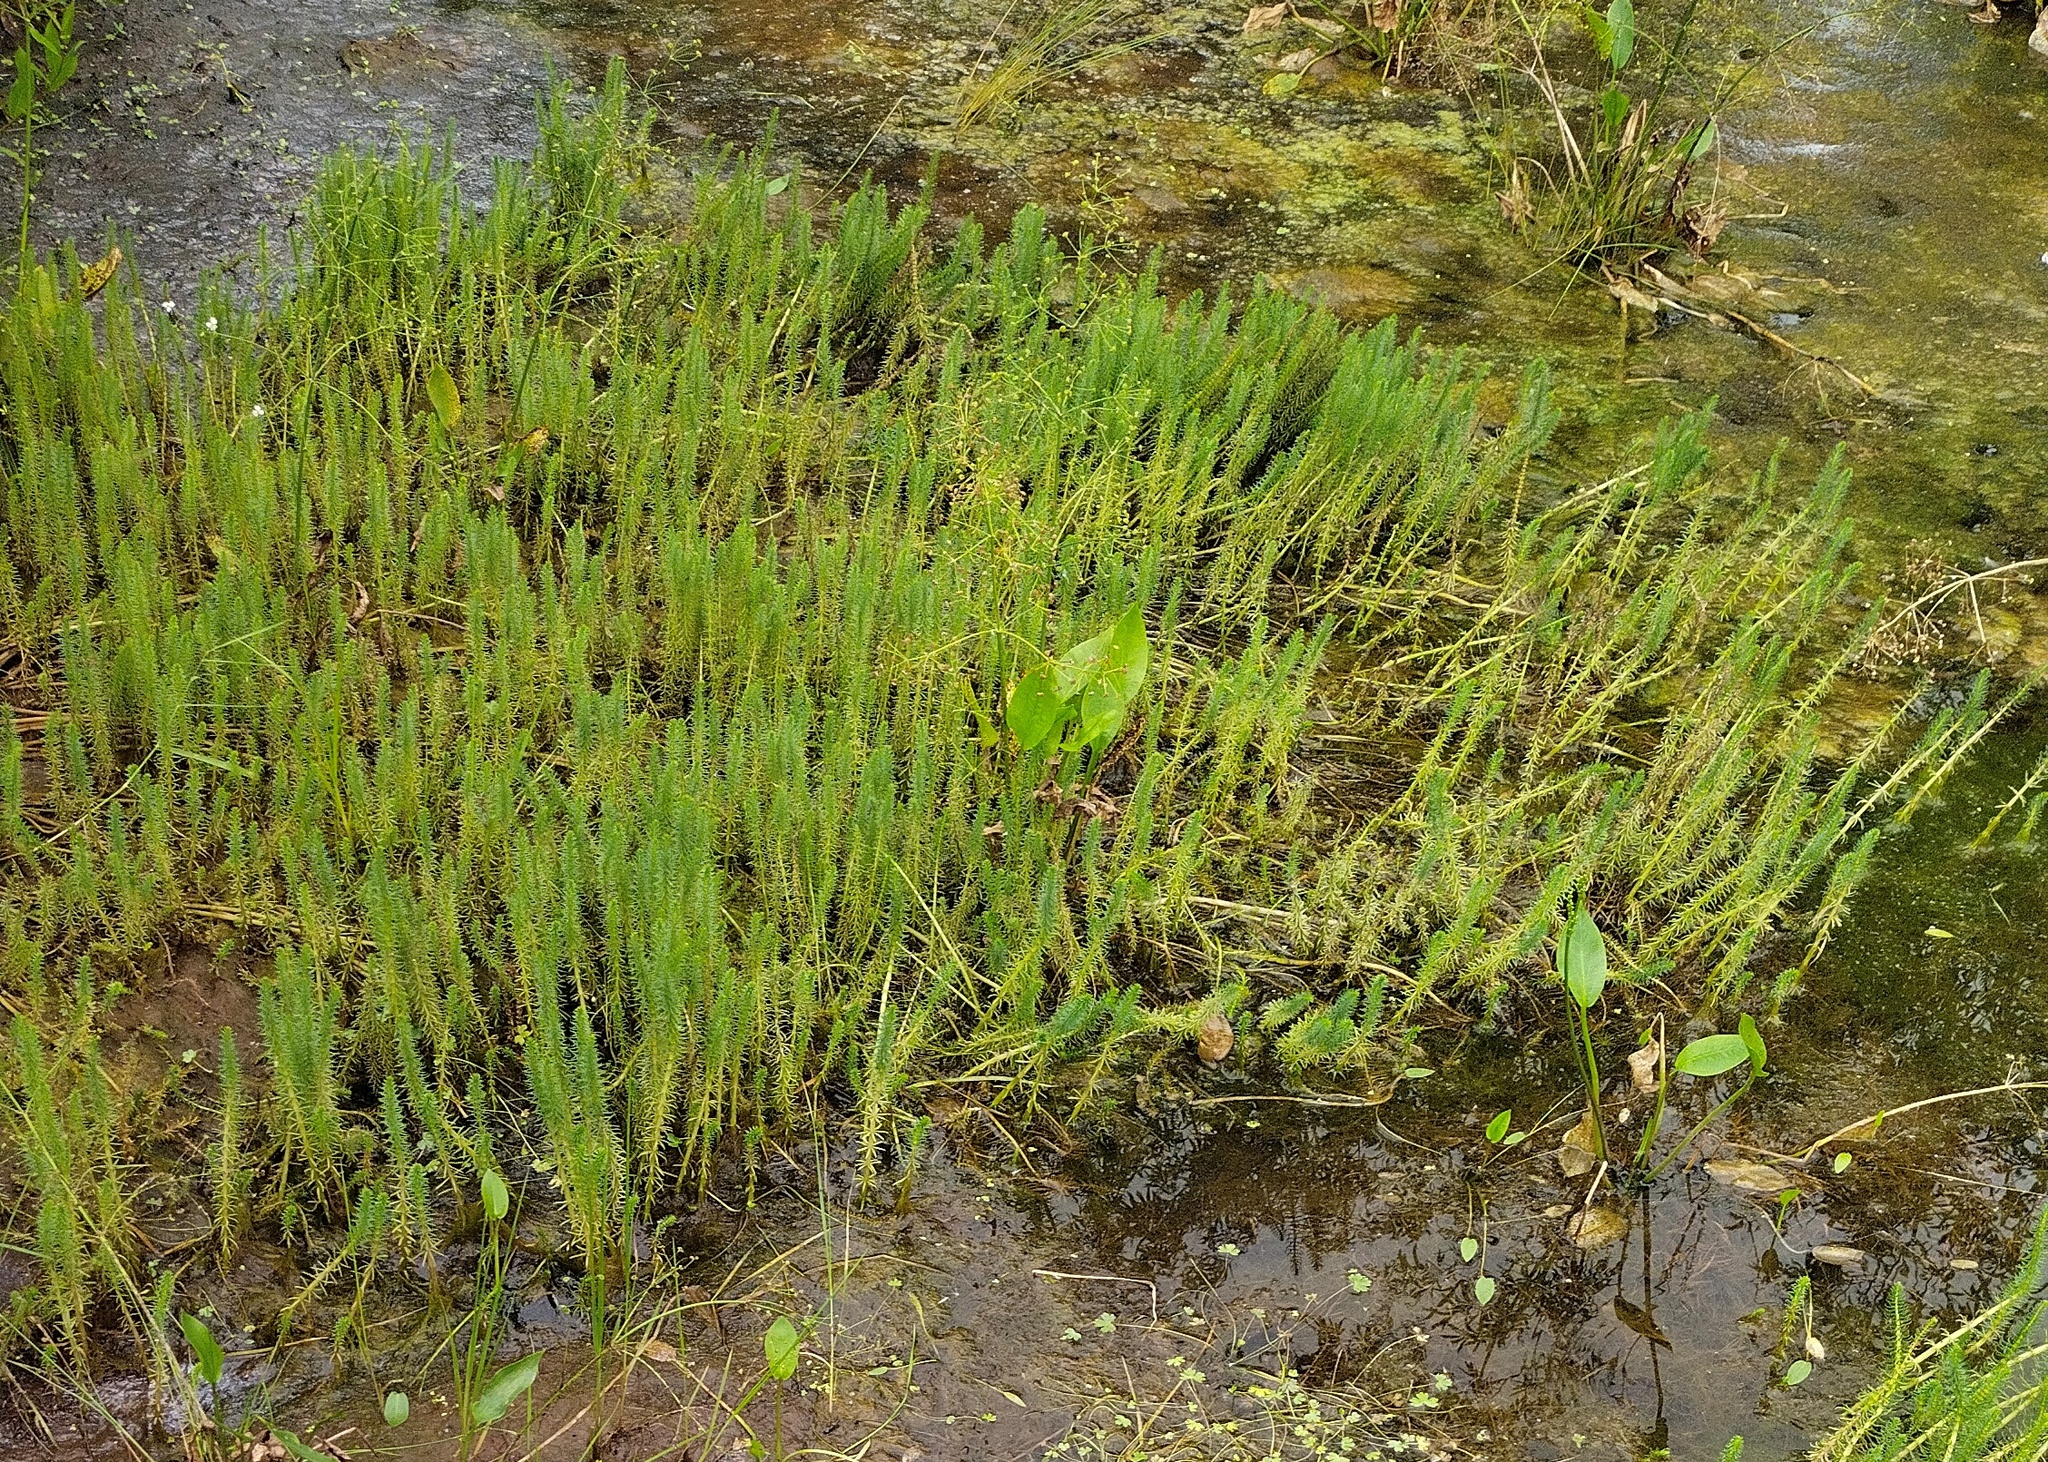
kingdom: Plantae
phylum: Tracheophyta
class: Magnoliopsida
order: Lamiales
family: Plantaginaceae
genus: Hippuris
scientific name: Hippuris vulgaris
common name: Mare's-tail
